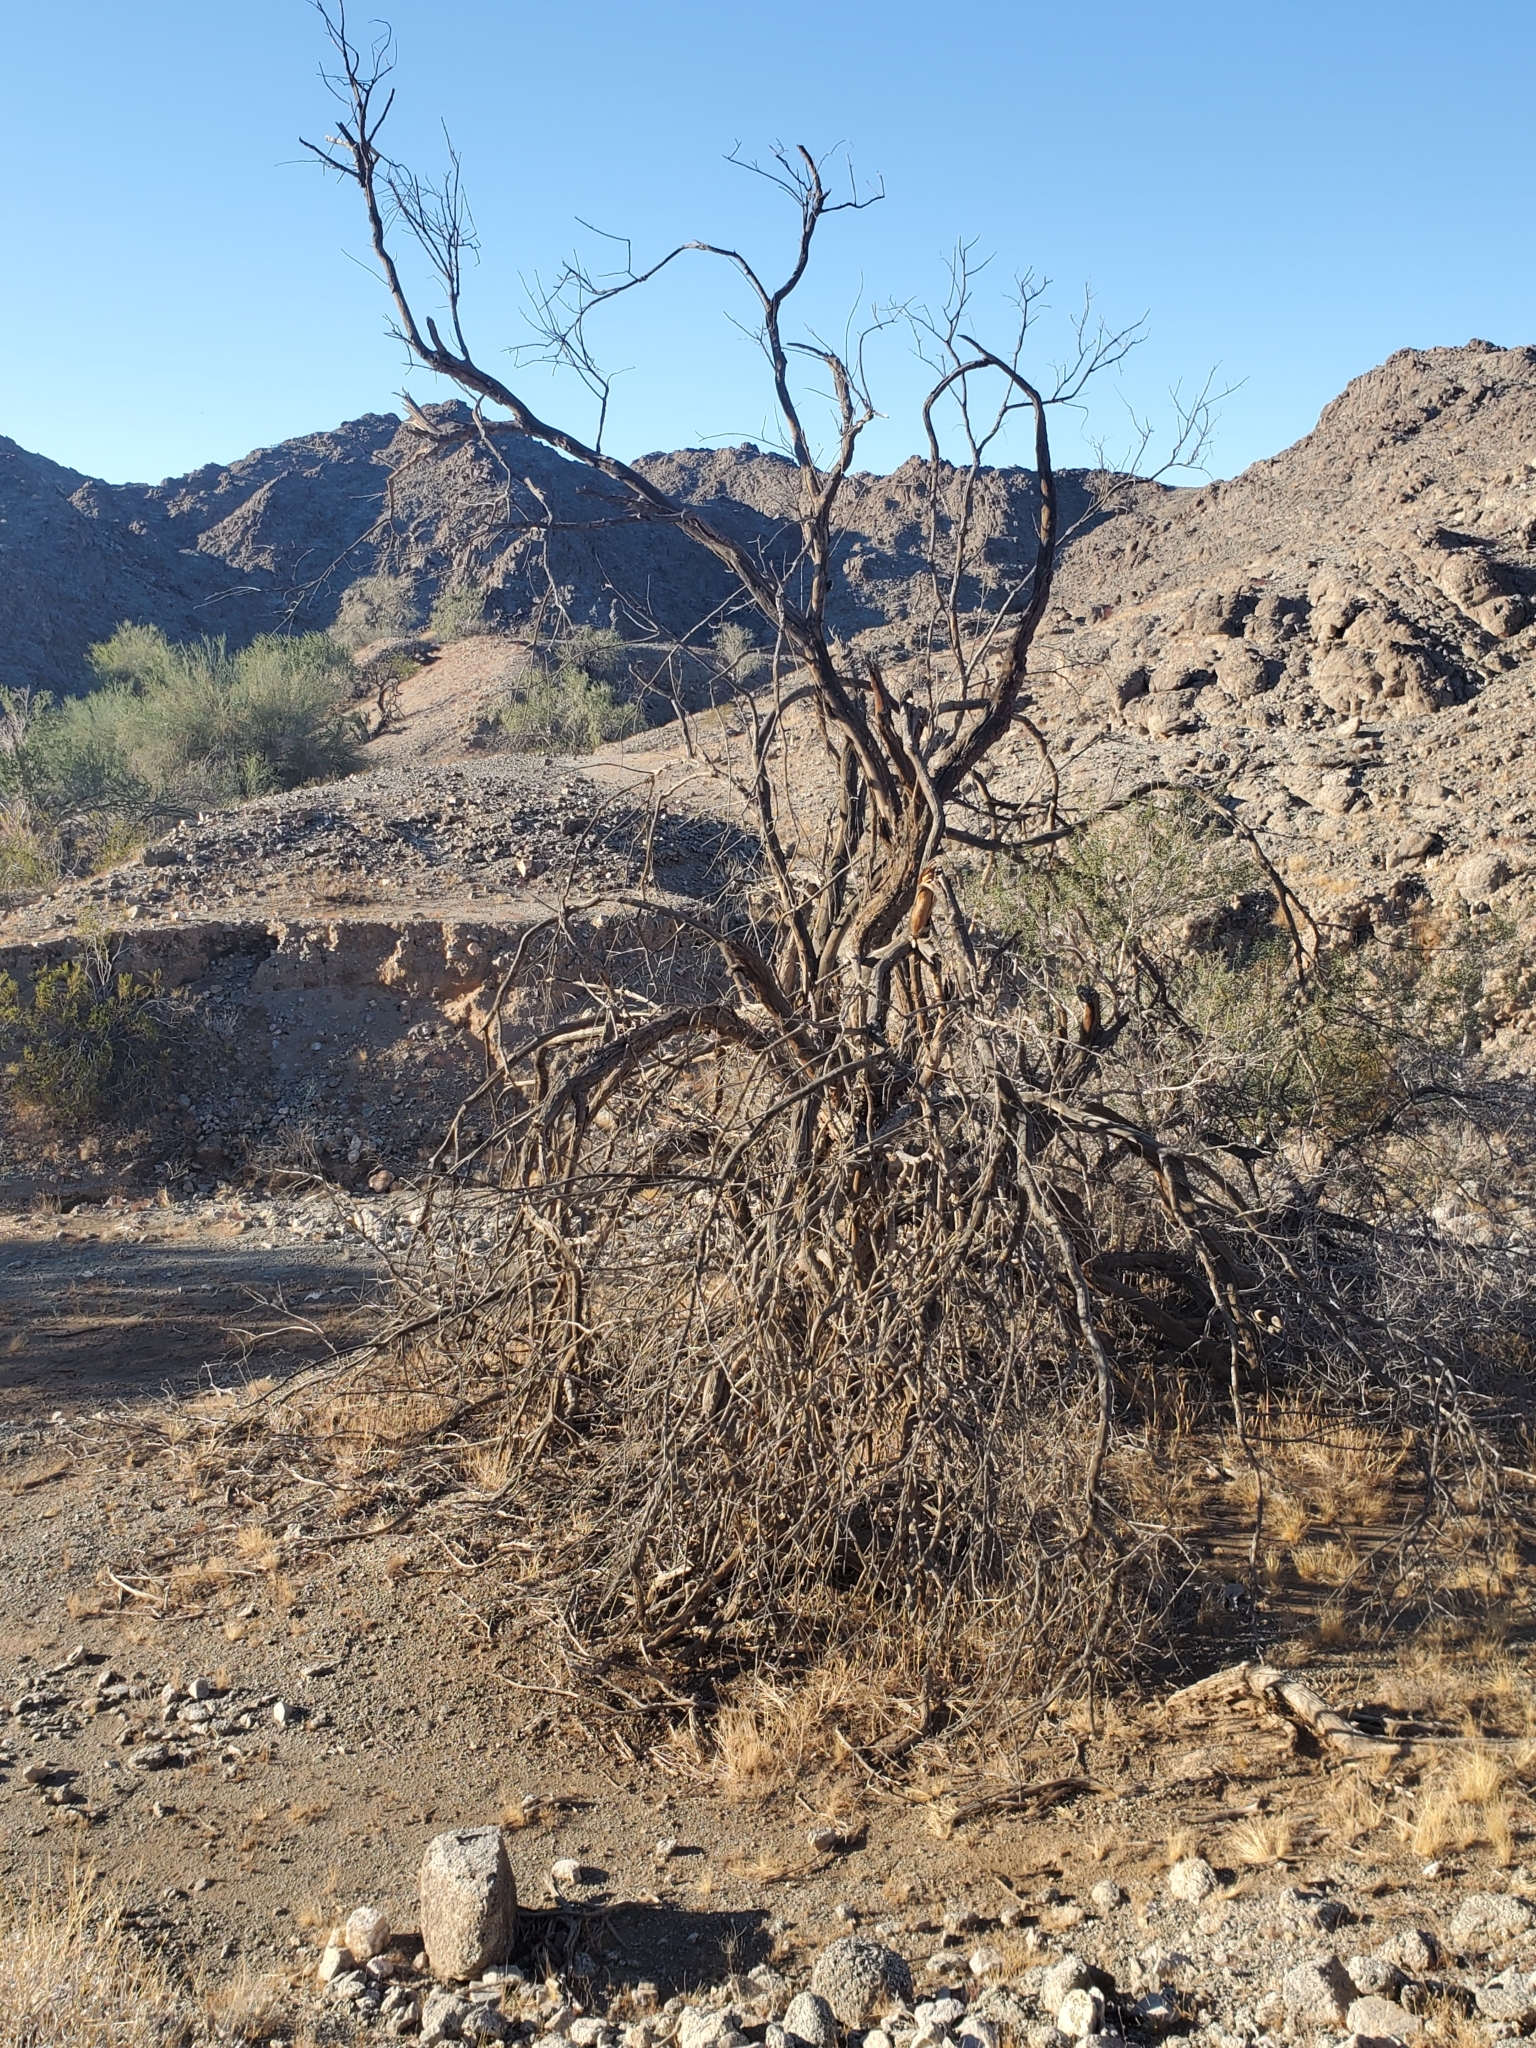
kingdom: Plantae
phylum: Tracheophyta
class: Magnoliopsida
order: Fabales
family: Fabaceae
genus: Olneya
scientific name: Olneya tesota
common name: Desert ironwood
